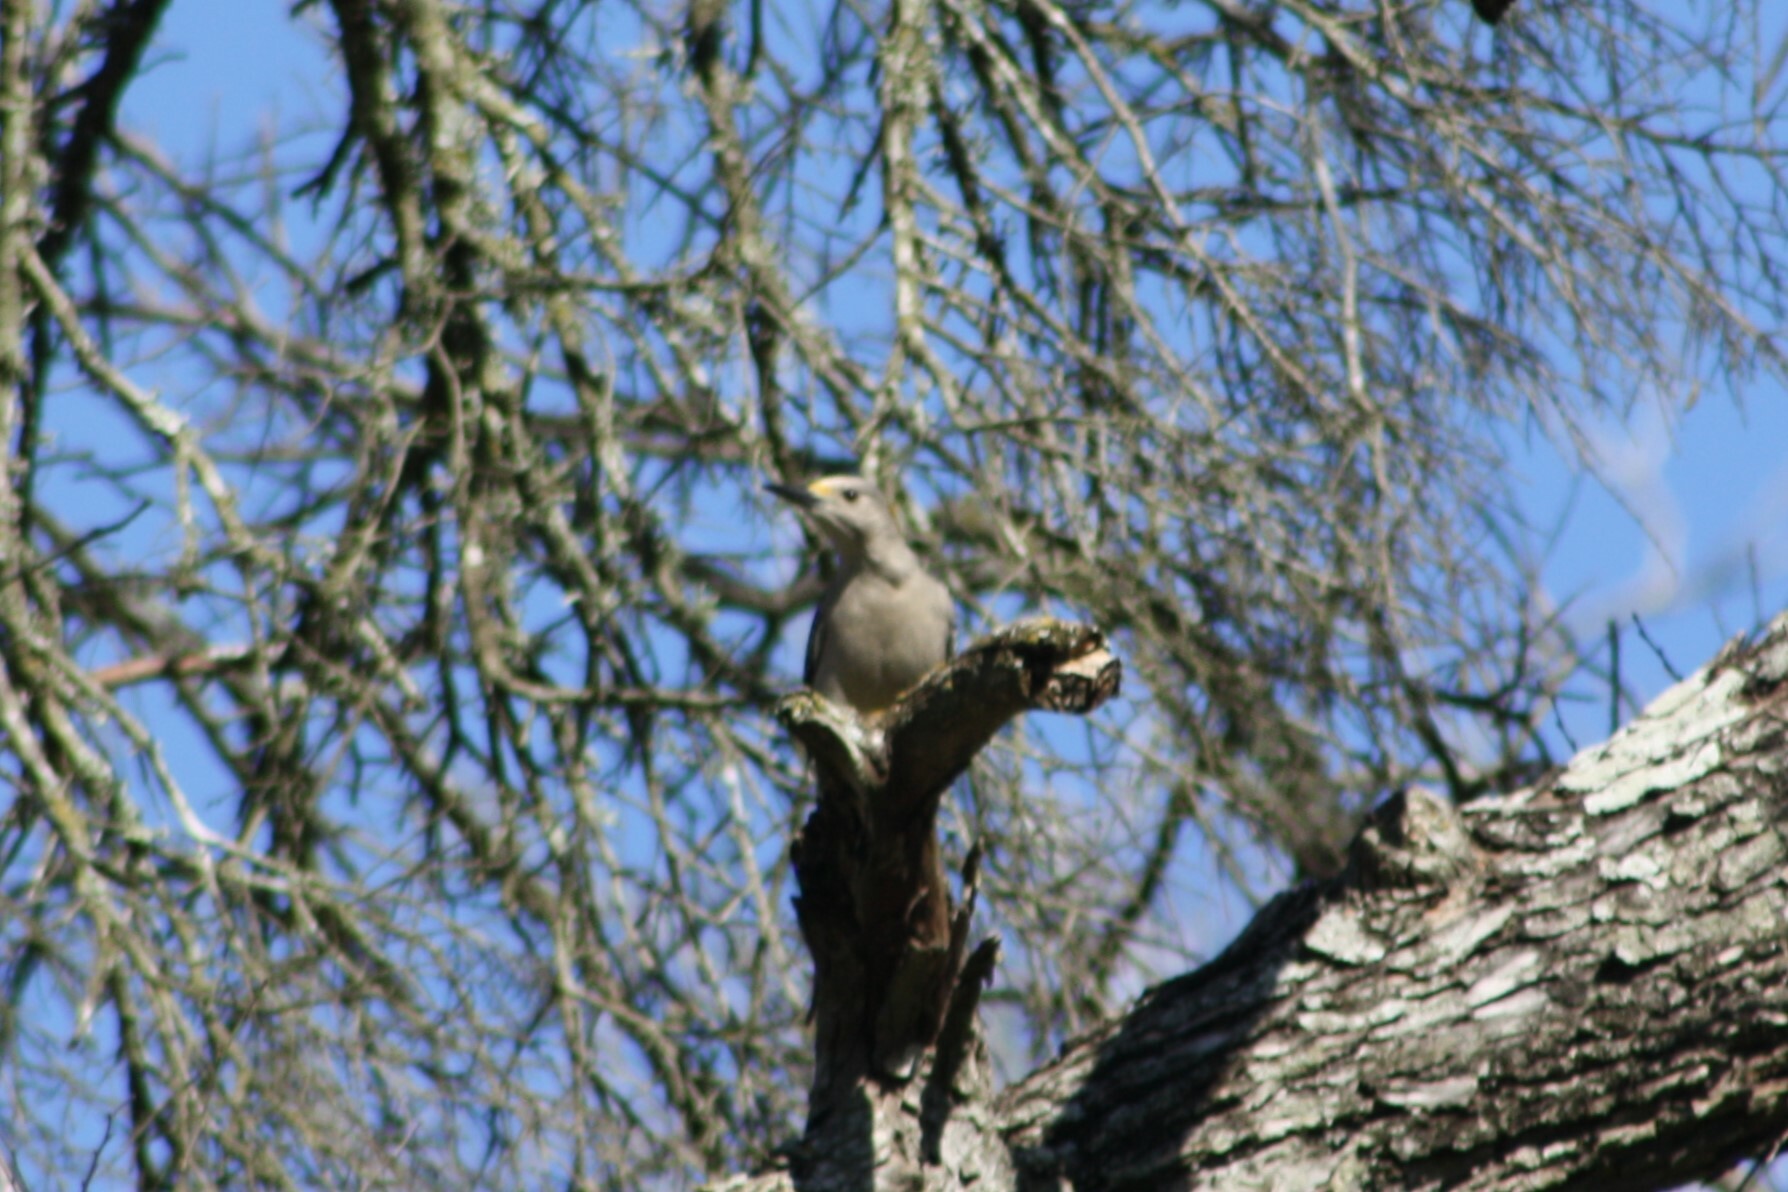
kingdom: Animalia
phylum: Chordata
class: Aves
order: Piciformes
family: Picidae
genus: Melanerpes
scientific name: Melanerpes aurifrons
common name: Golden-fronted woodpecker
